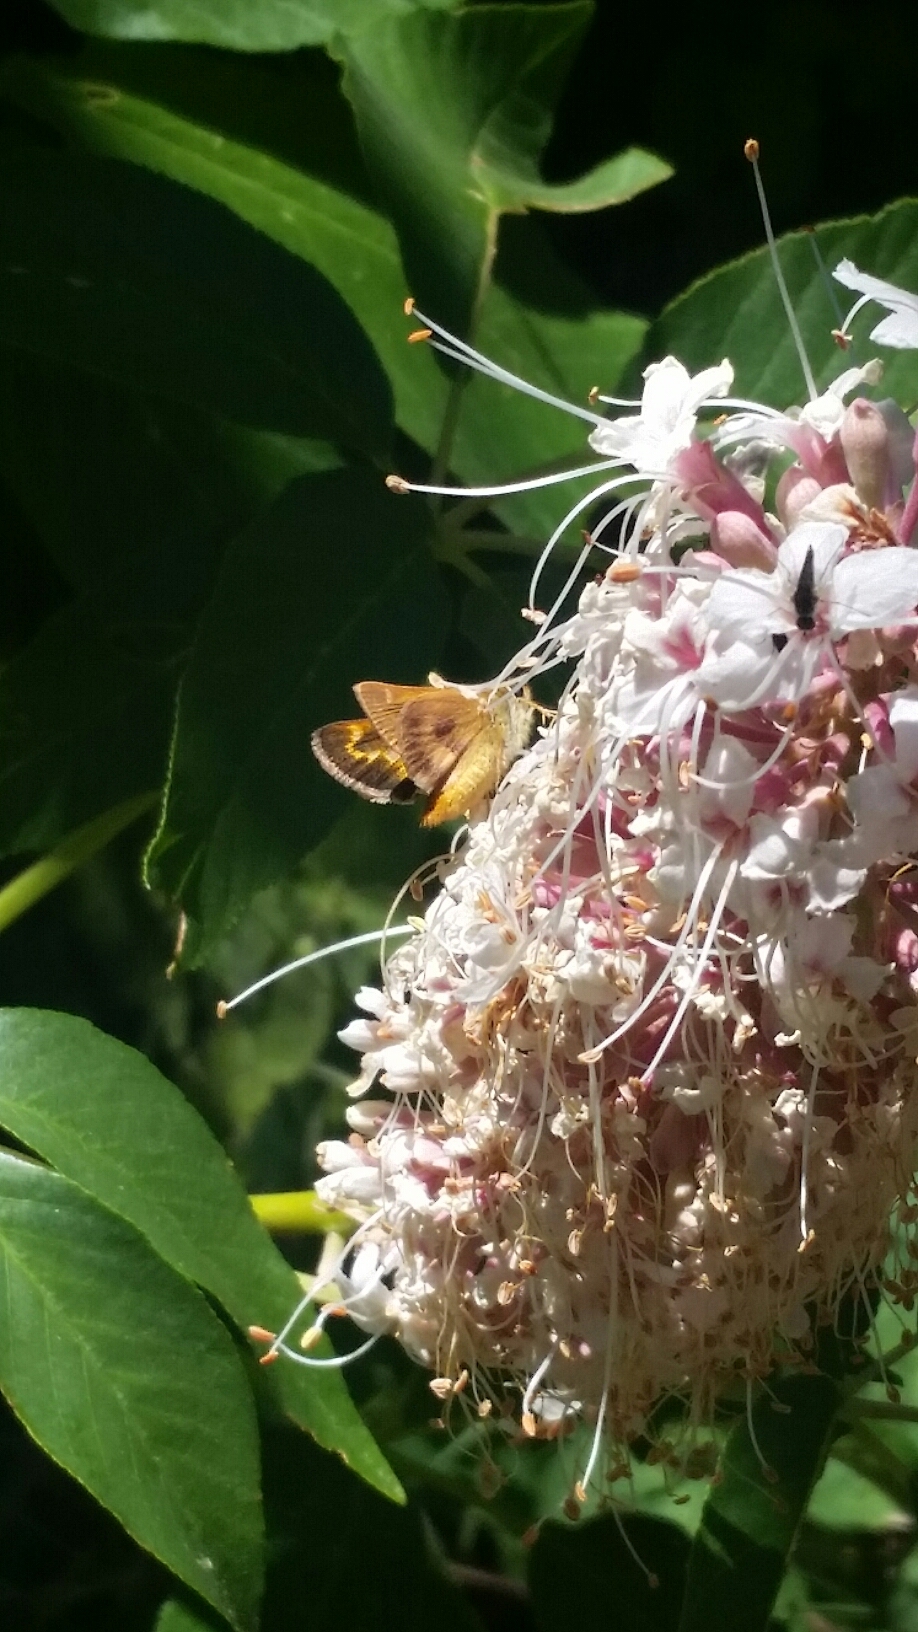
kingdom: Animalia
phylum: Arthropoda
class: Insecta
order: Lepidoptera
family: Hesperiidae
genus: Ochlodes
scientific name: Ochlodes agricola
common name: Rural skipper
